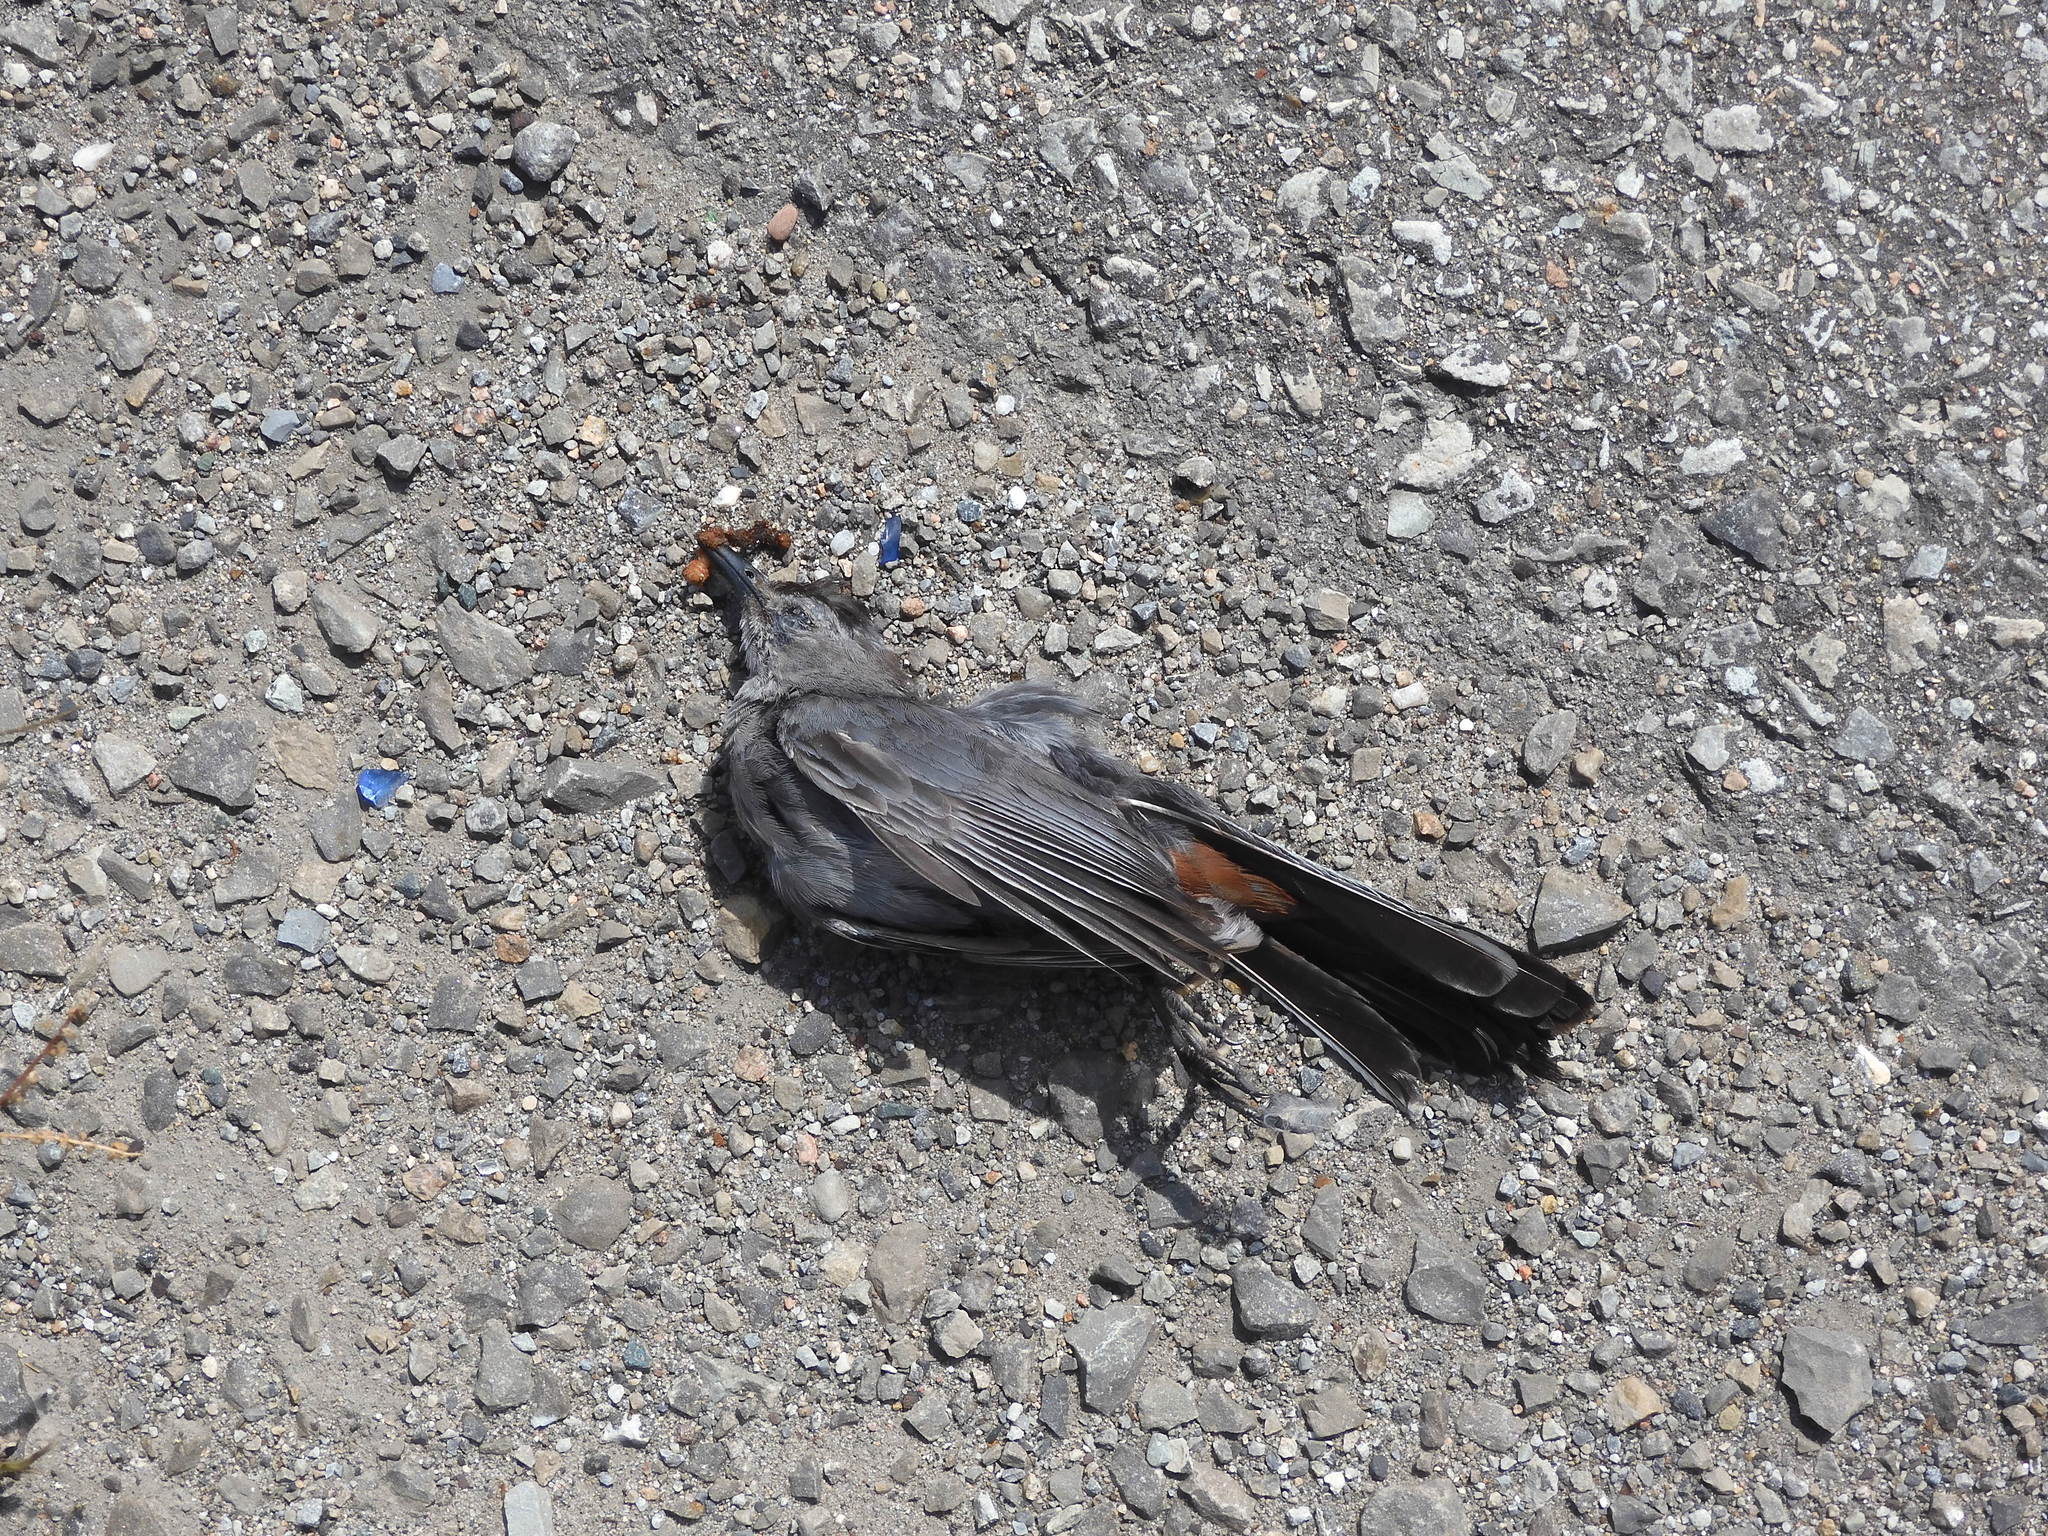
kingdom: Animalia
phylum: Chordata
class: Aves
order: Passeriformes
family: Mimidae
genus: Dumetella
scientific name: Dumetella carolinensis
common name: Gray catbird
